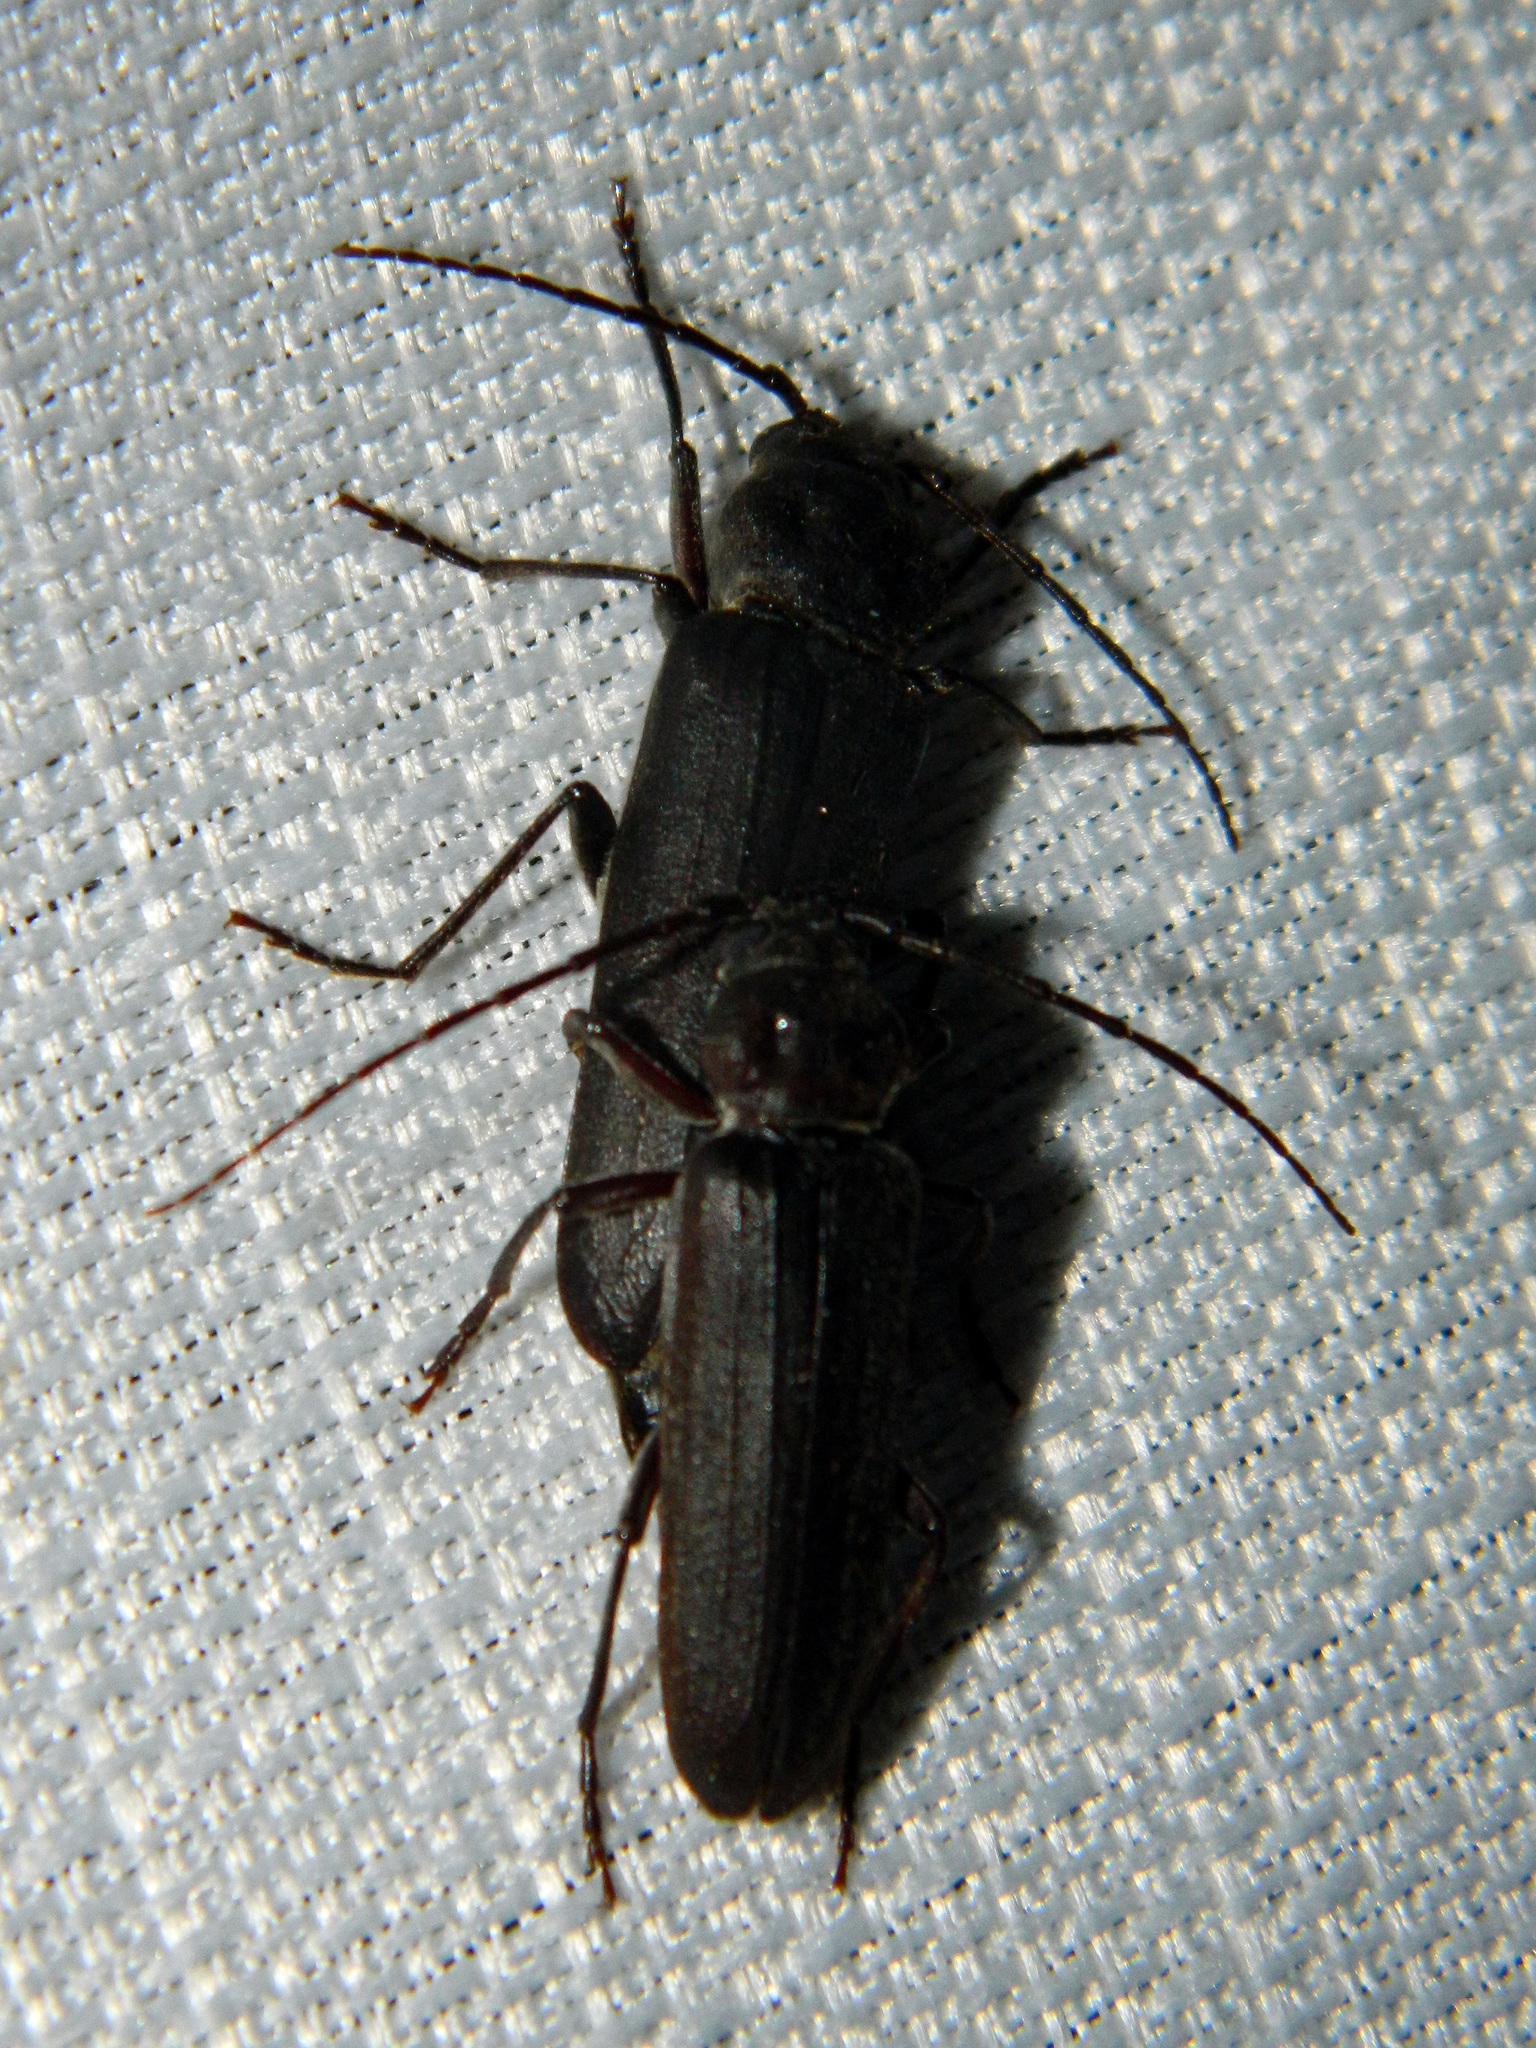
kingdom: Animalia
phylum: Arthropoda
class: Insecta
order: Coleoptera
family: Cerambycidae
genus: Arhopalus
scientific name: Arhopalus foveicollis
